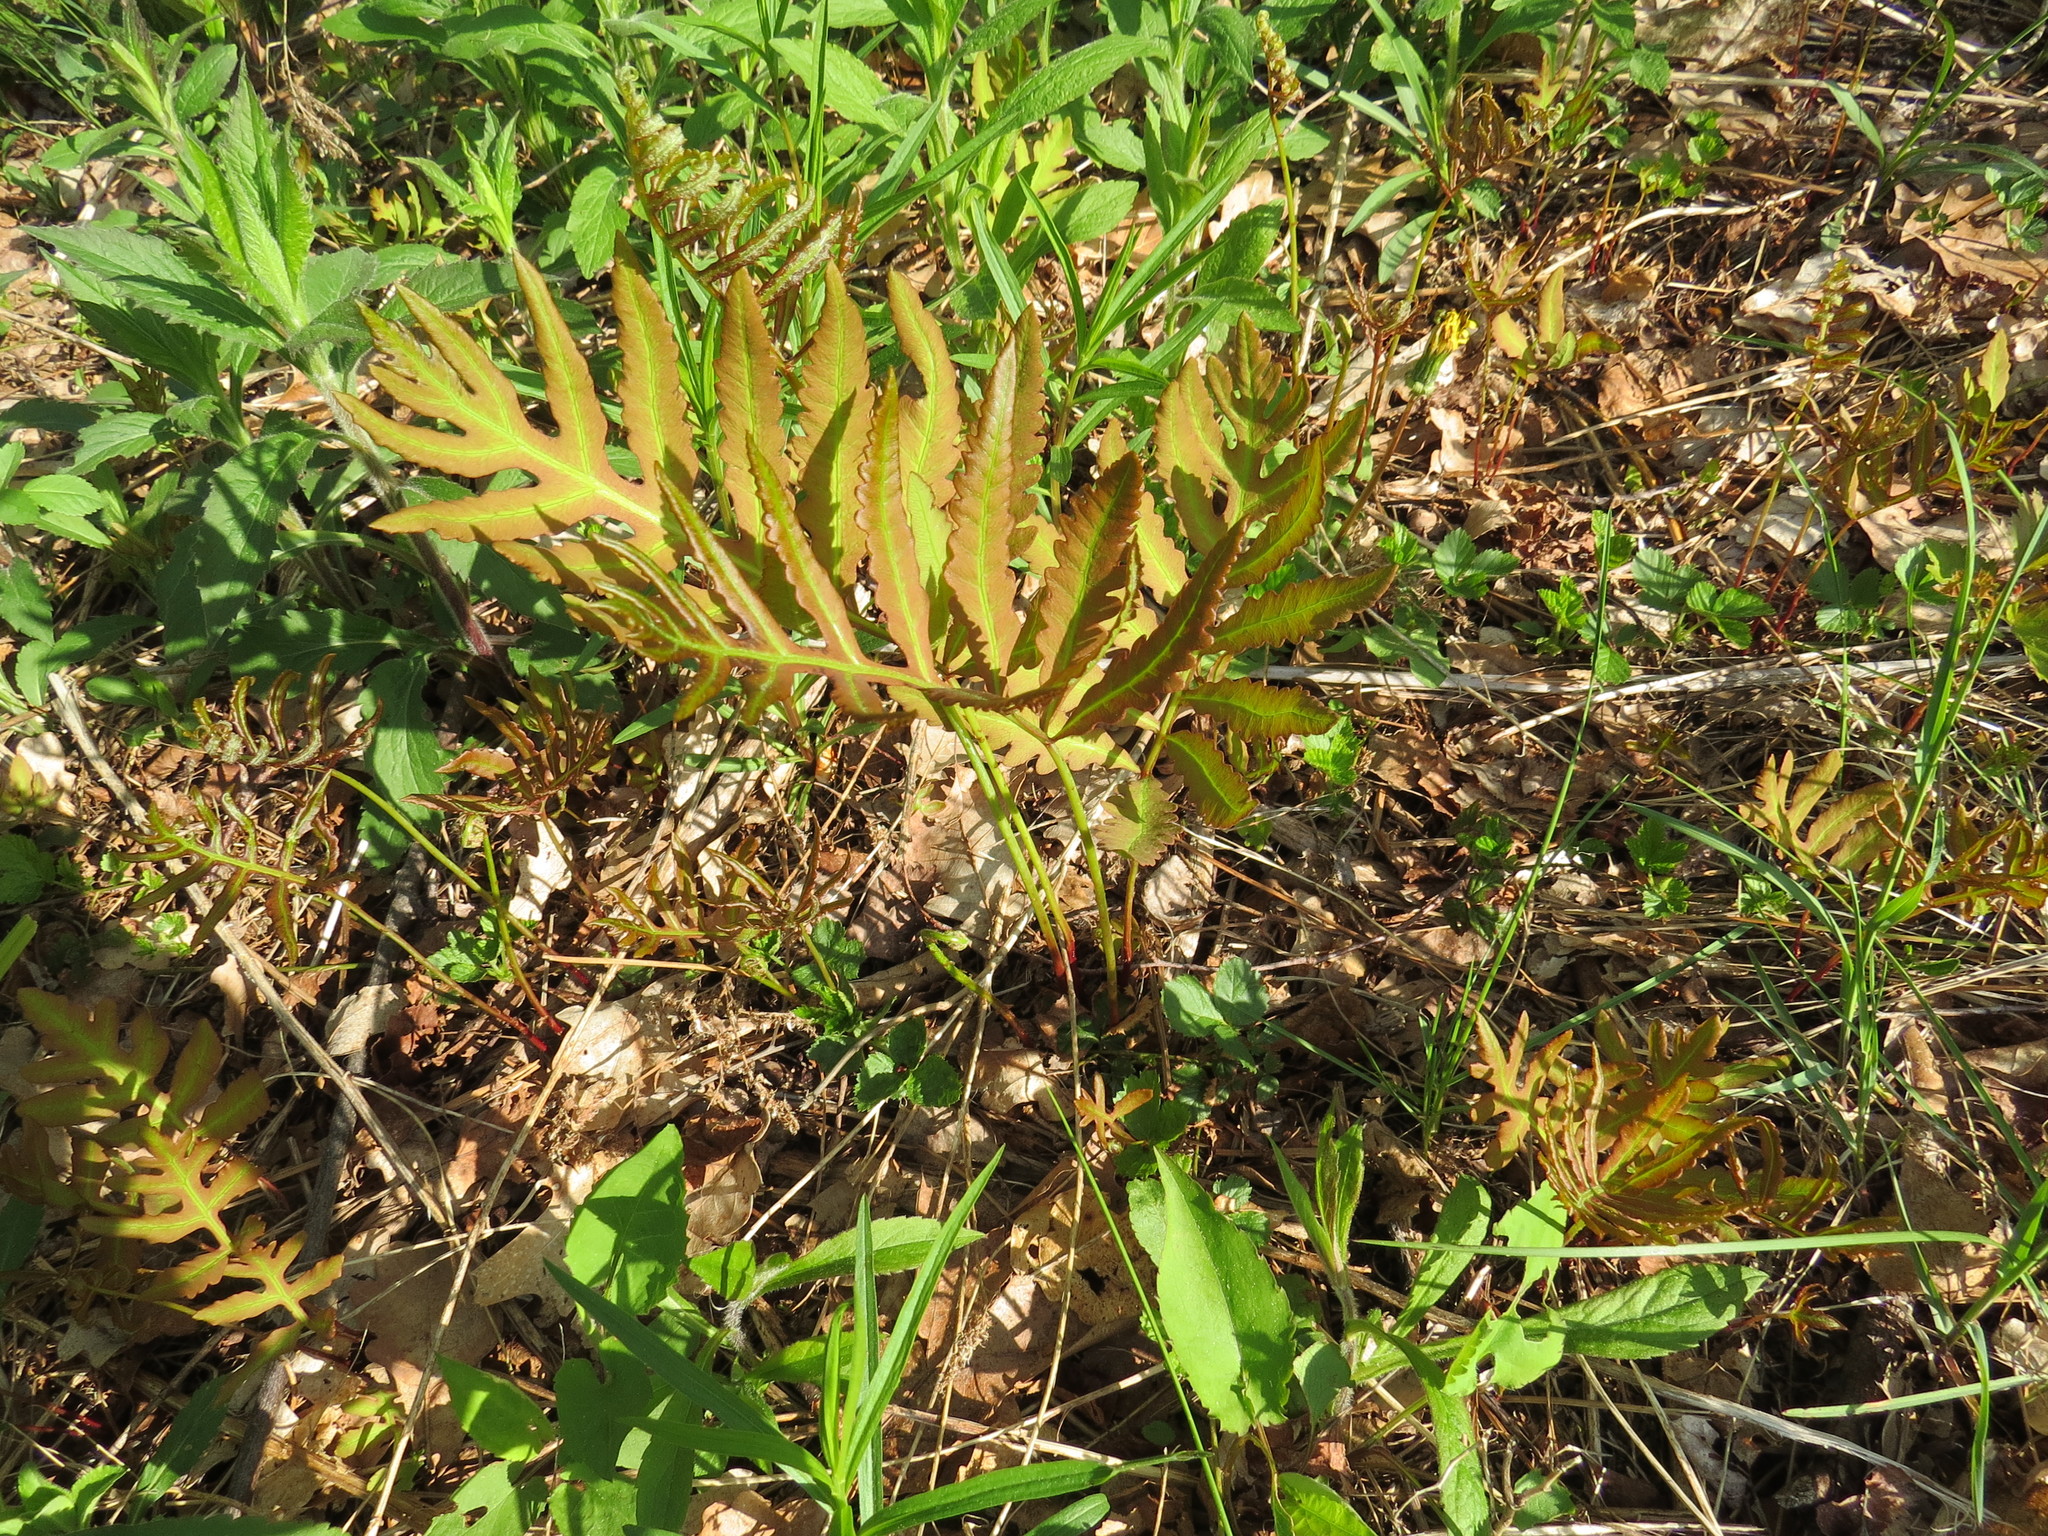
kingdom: Plantae
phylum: Tracheophyta
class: Polypodiopsida
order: Polypodiales
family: Onocleaceae
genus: Onoclea
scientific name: Onoclea sensibilis
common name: Sensitive fern
